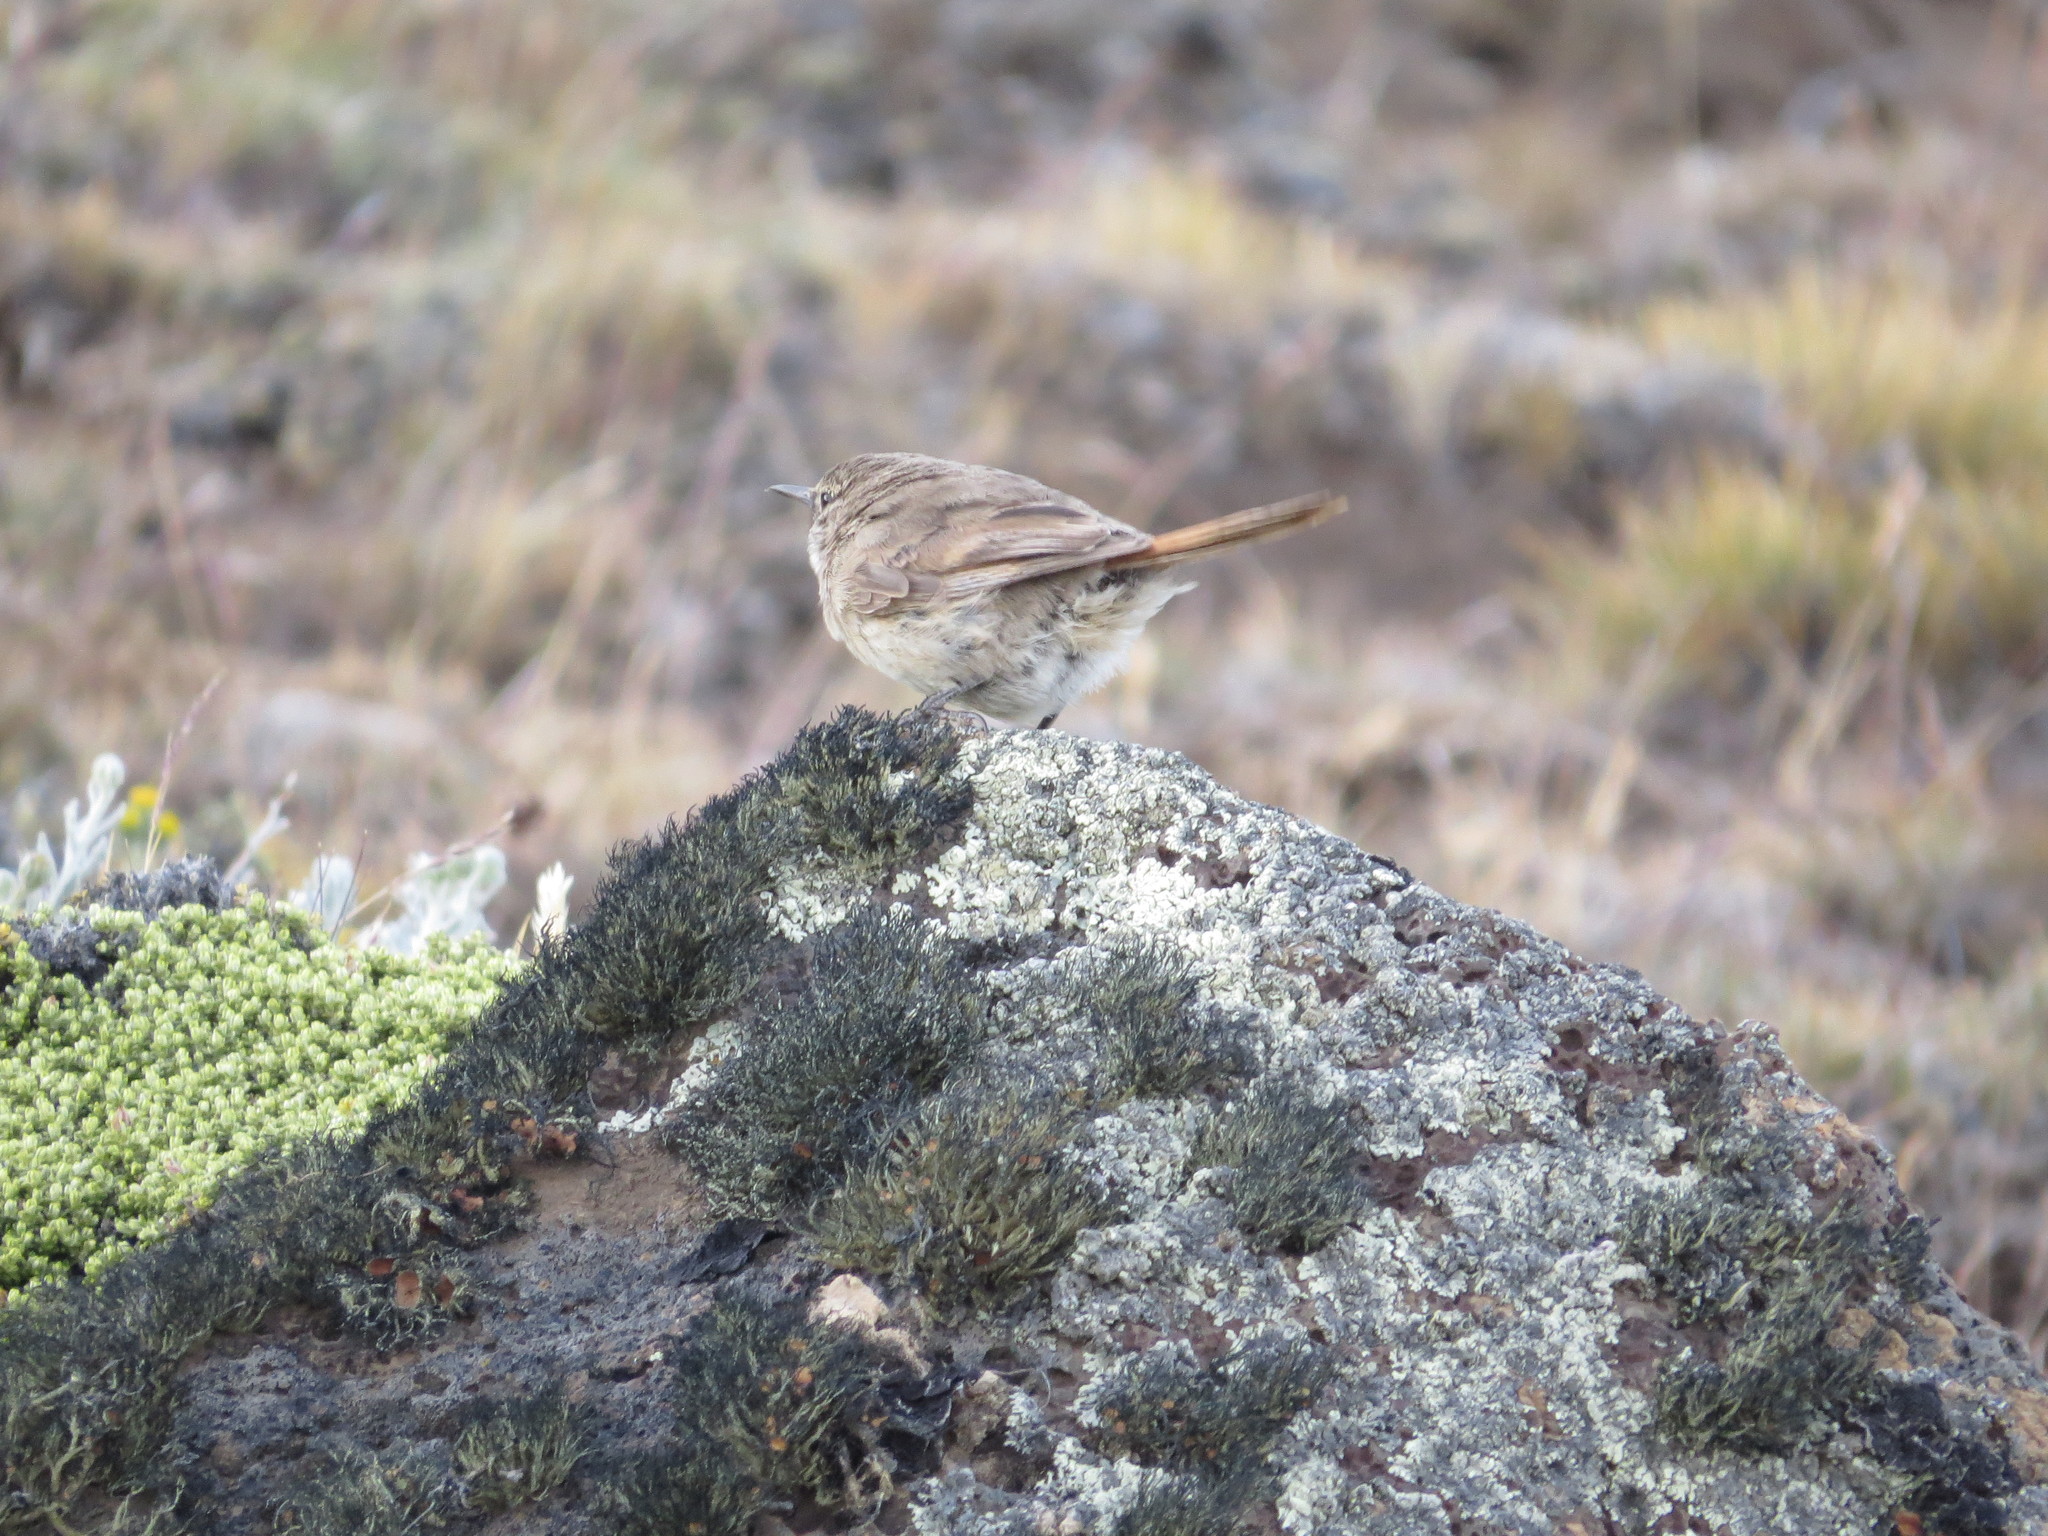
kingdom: Animalia
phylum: Chordata
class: Aves
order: Passeriformes
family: Furnariidae
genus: Asthenes
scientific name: Asthenes modesta
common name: Cordilleran canastero
